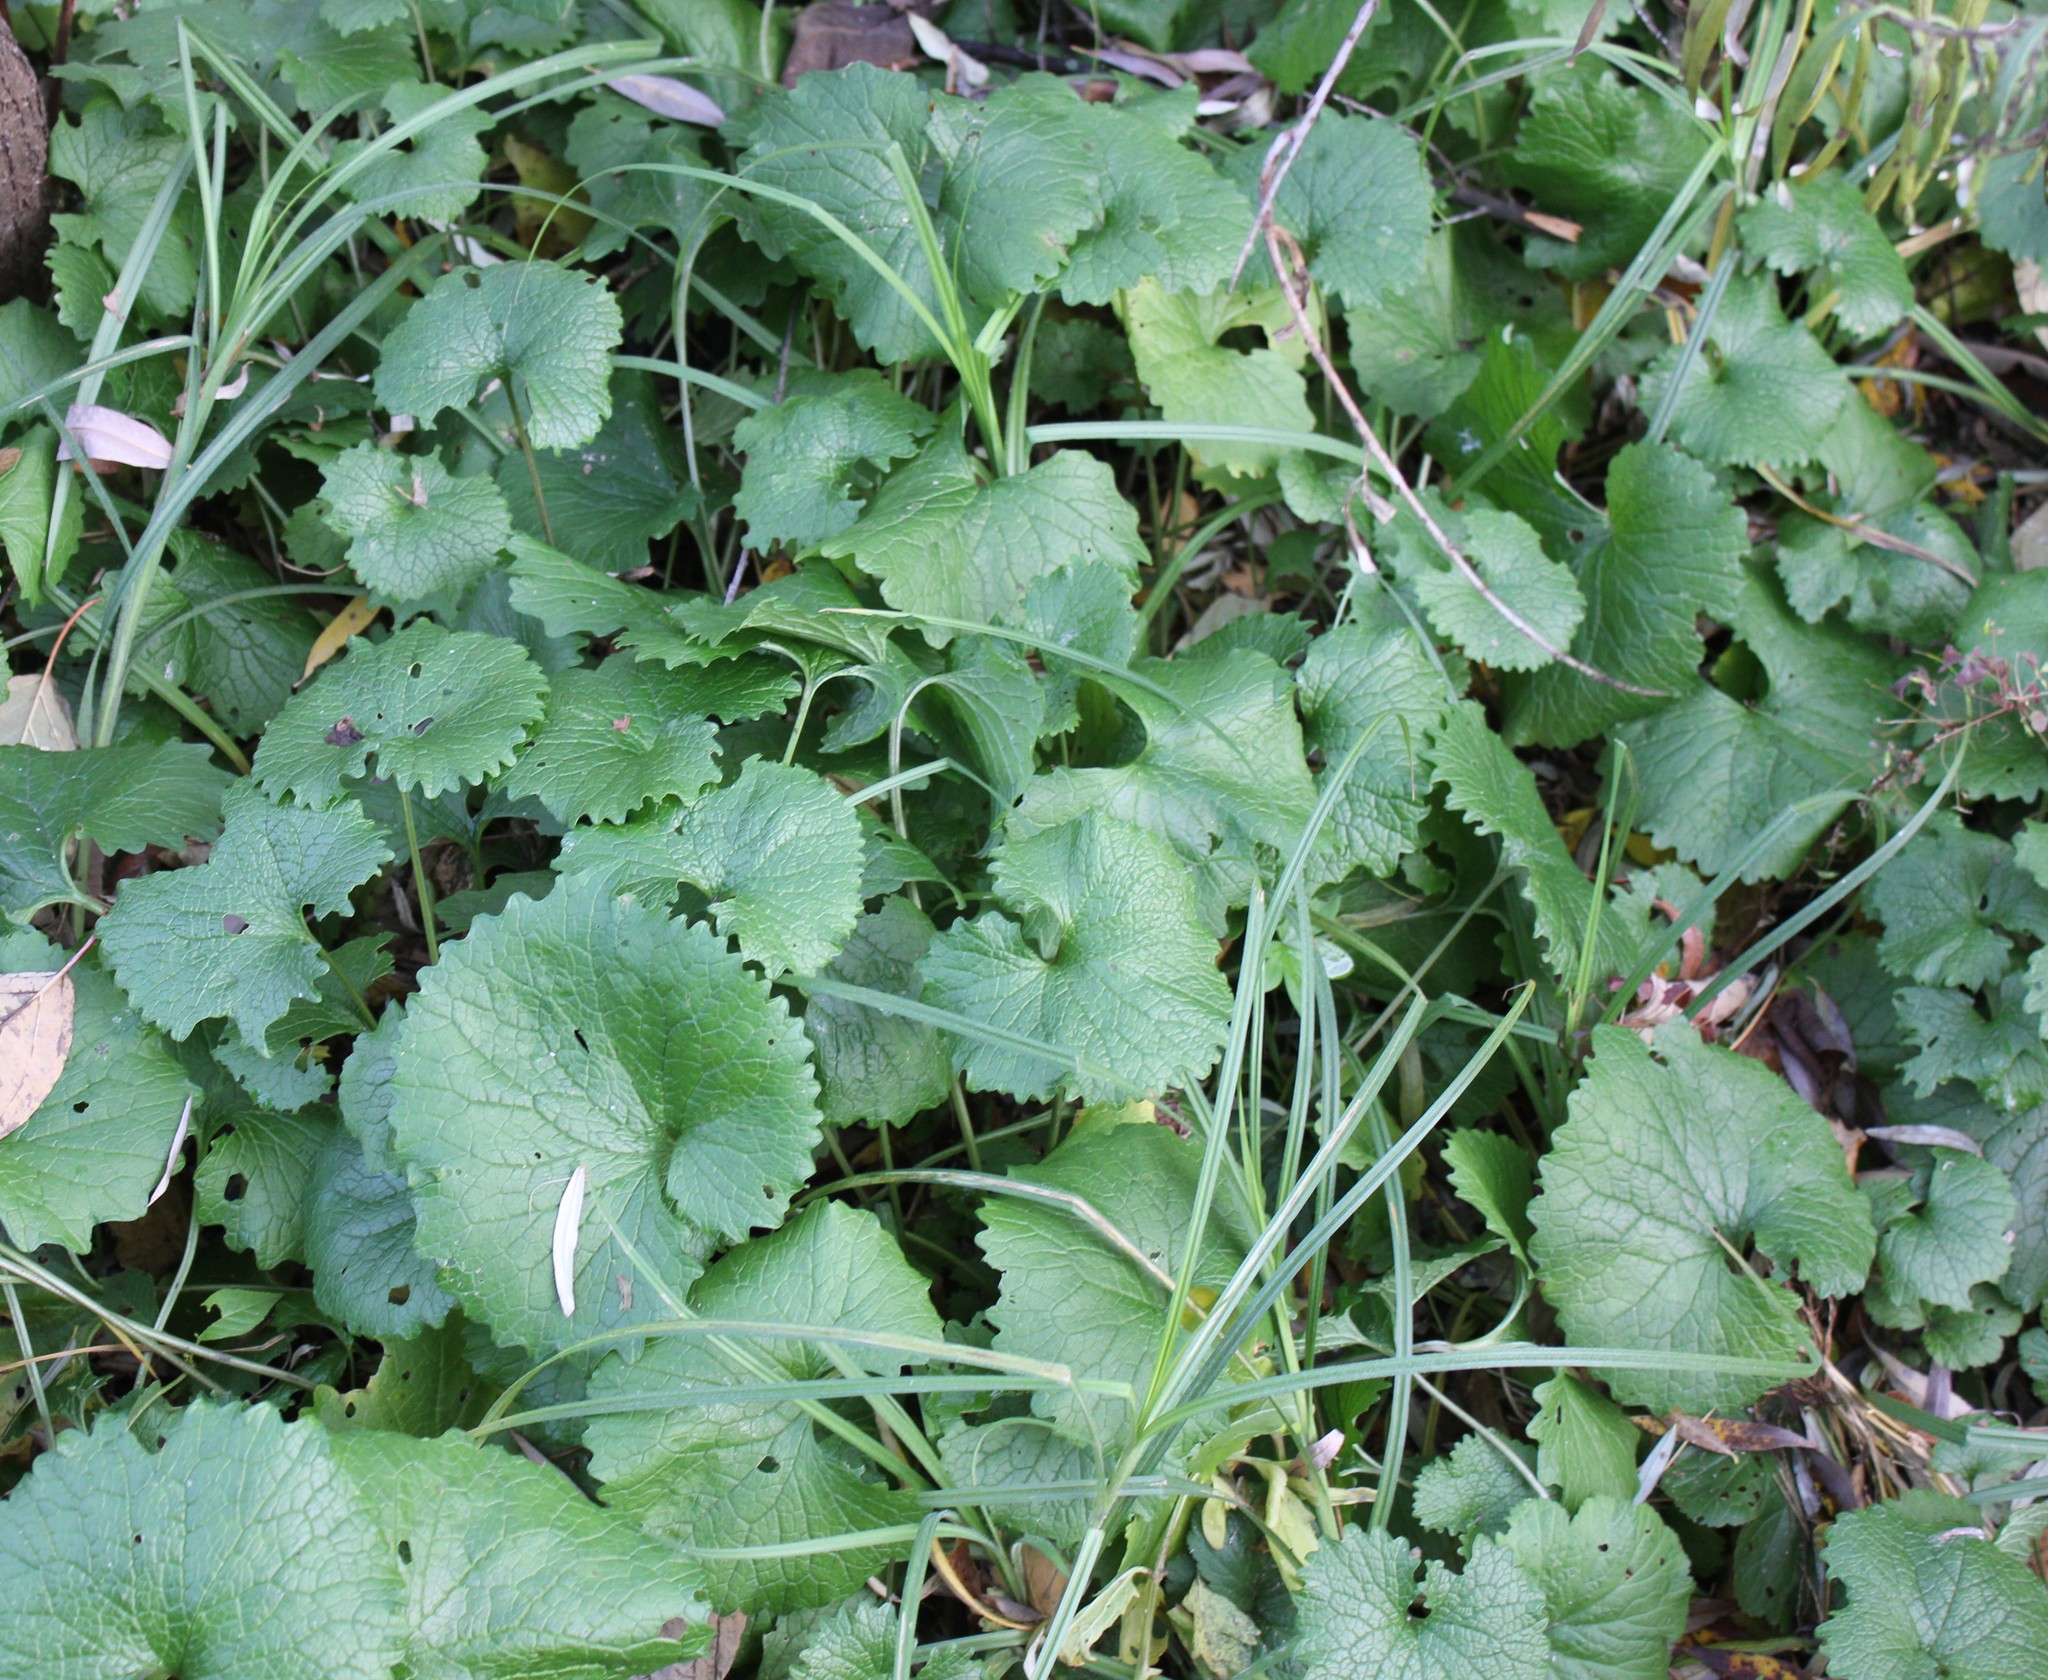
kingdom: Plantae
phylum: Tracheophyta
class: Magnoliopsida
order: Brassicales
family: Brassicaceae
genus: Alliaria
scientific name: Alliaria petiolata
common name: Garlic mustard
